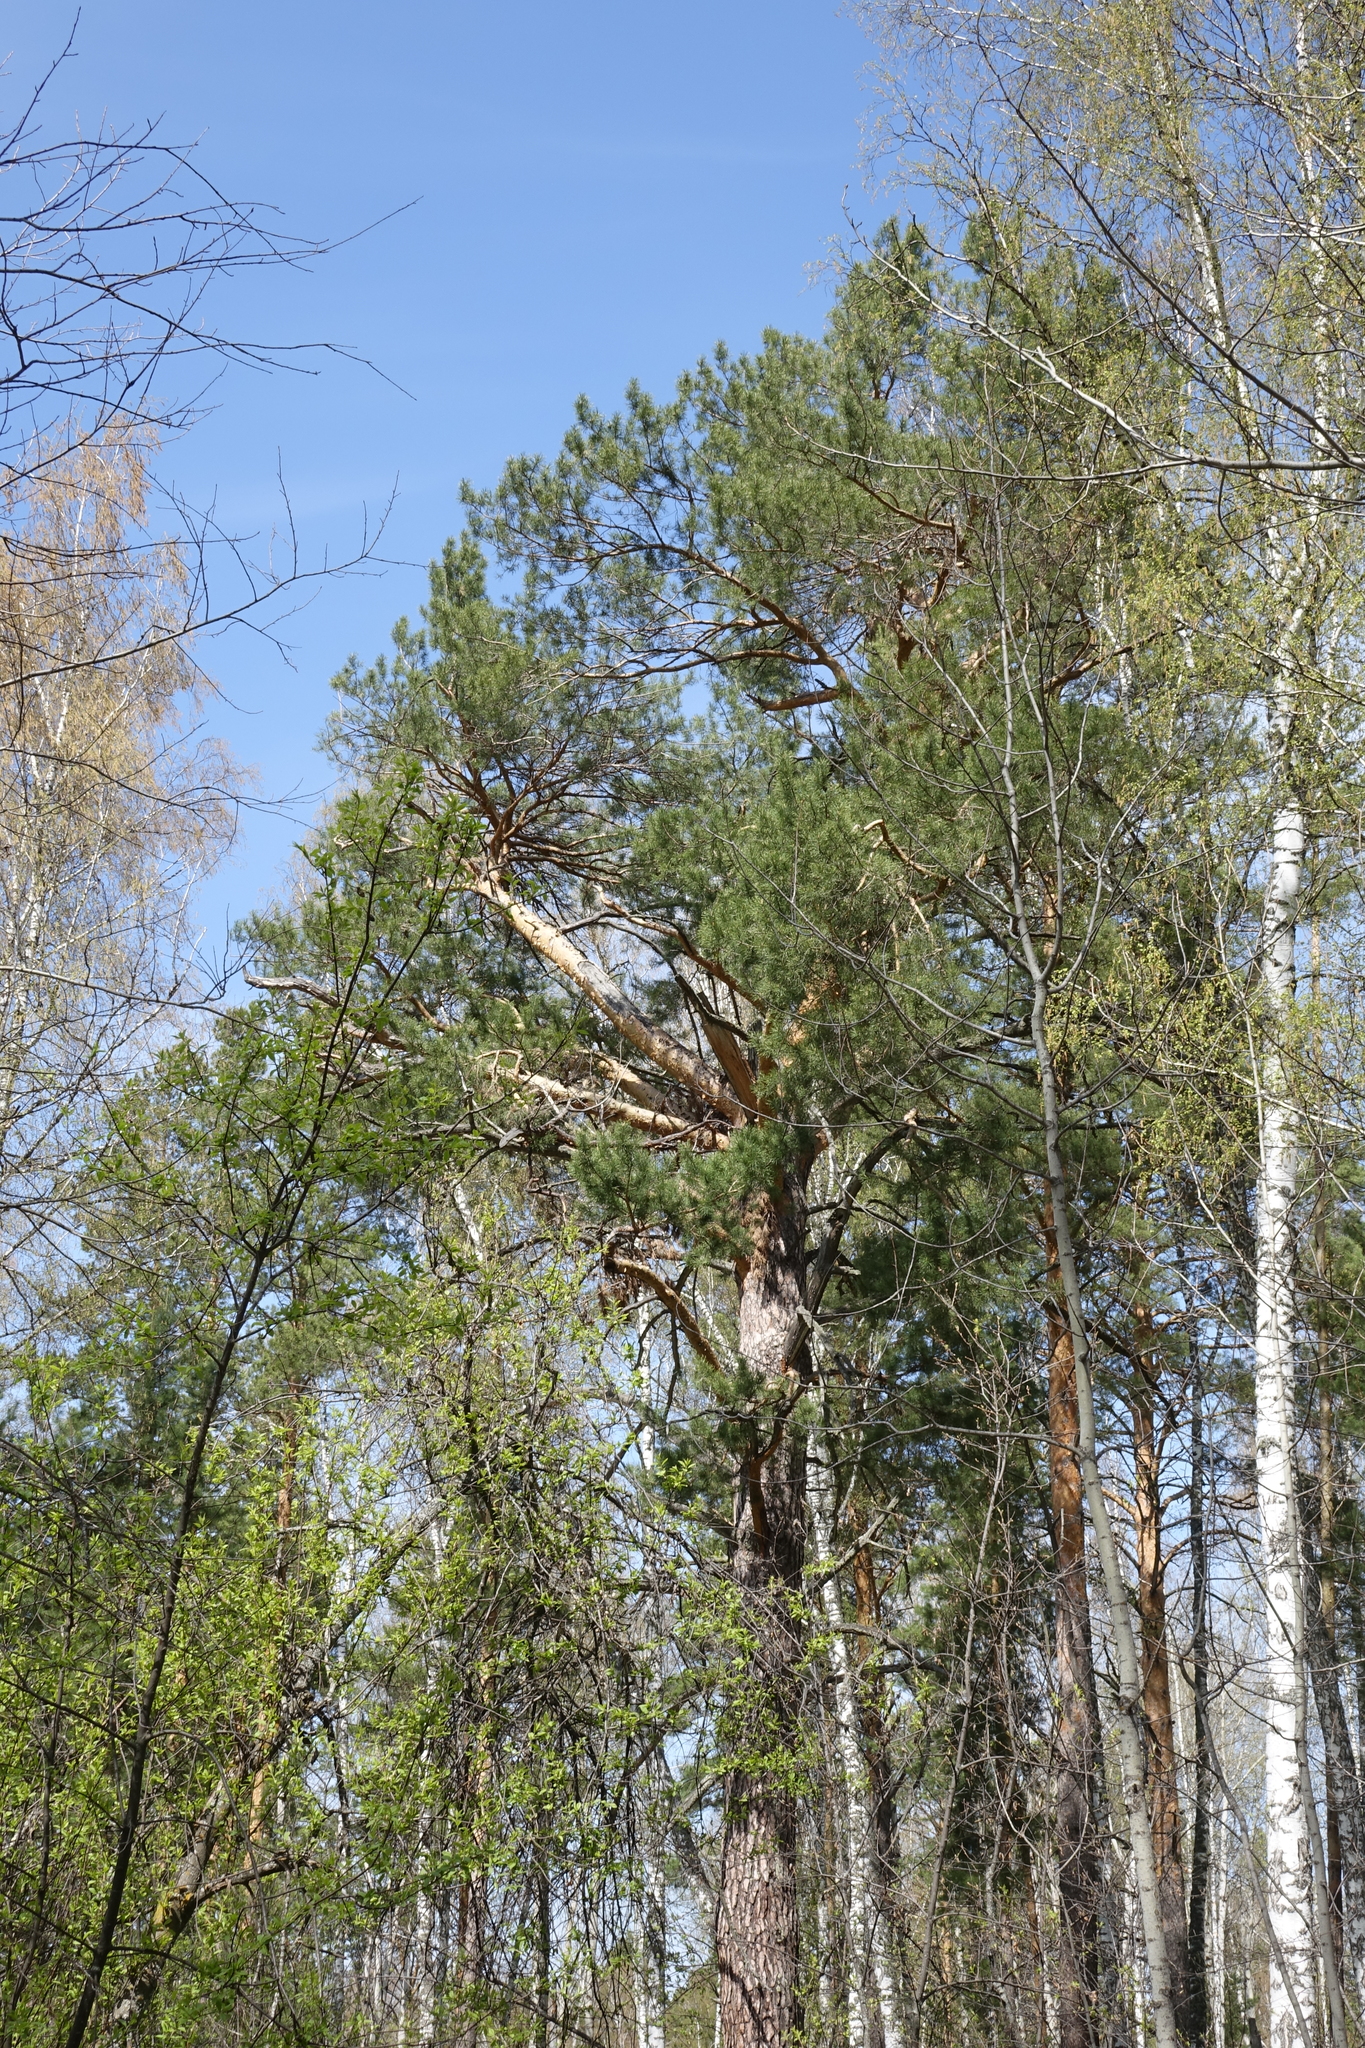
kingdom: Plantae
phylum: Tracheophyta
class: Pinopsida
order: Pinales
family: Pinaceae
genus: Pinus
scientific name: Pinus sylvestris
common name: Scots pine
